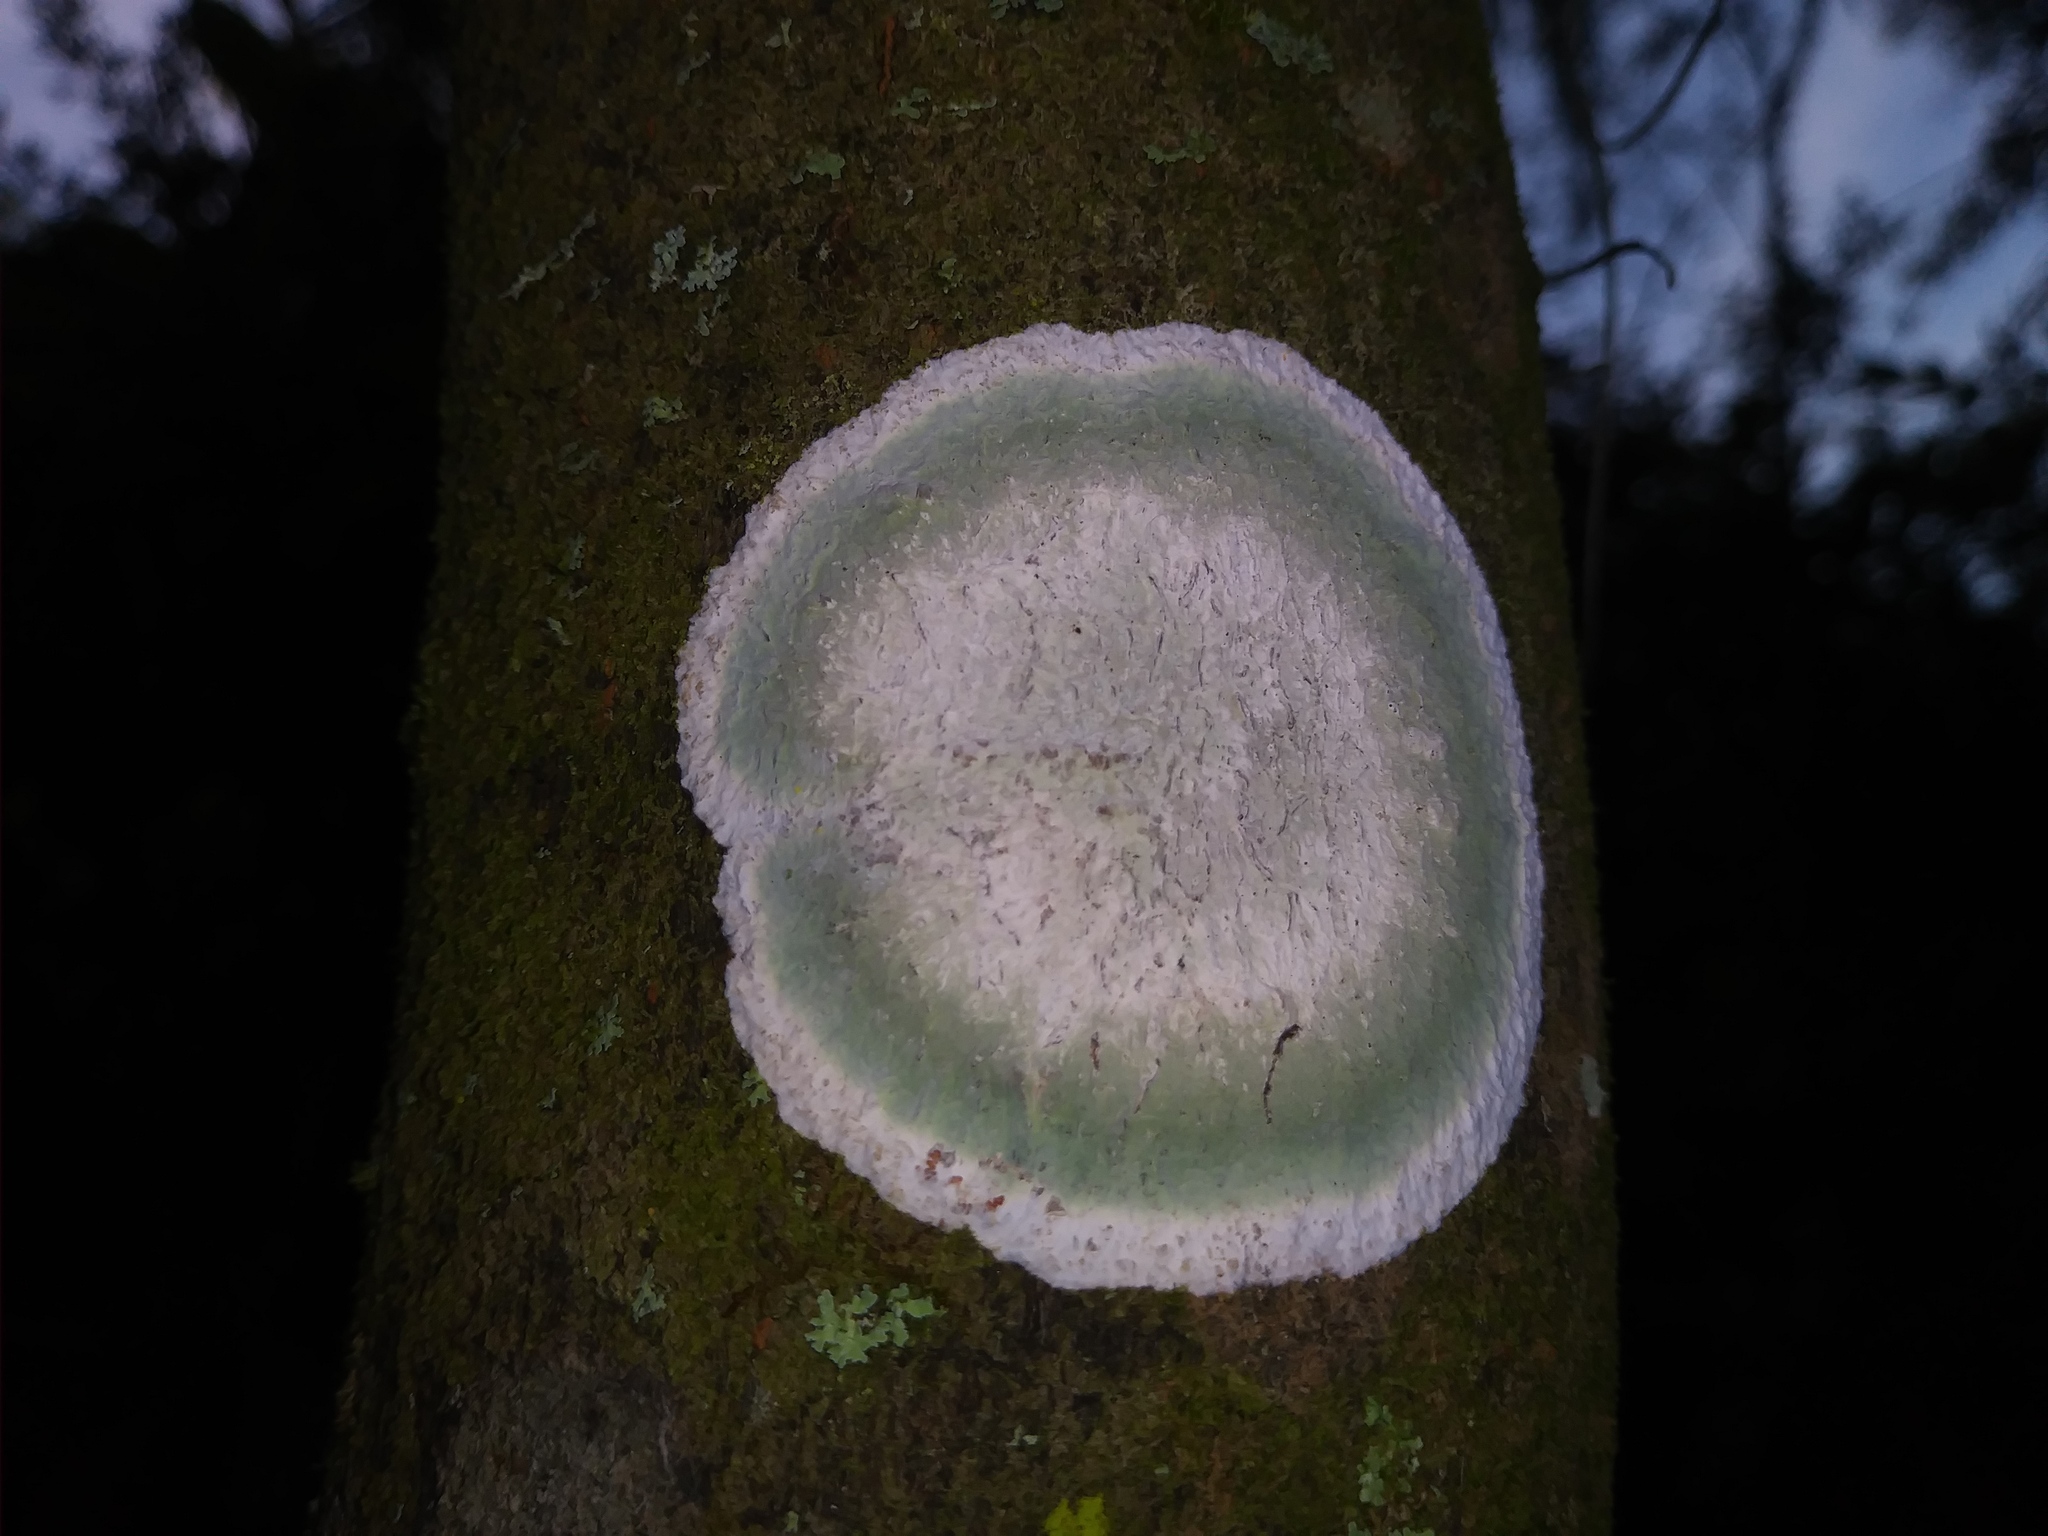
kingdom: Fungi
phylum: Ascomycota
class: Arthoniomycetes
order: Arthoniales
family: Arthoniaceae
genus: Cryptothecia
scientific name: Cryptothecia striata
